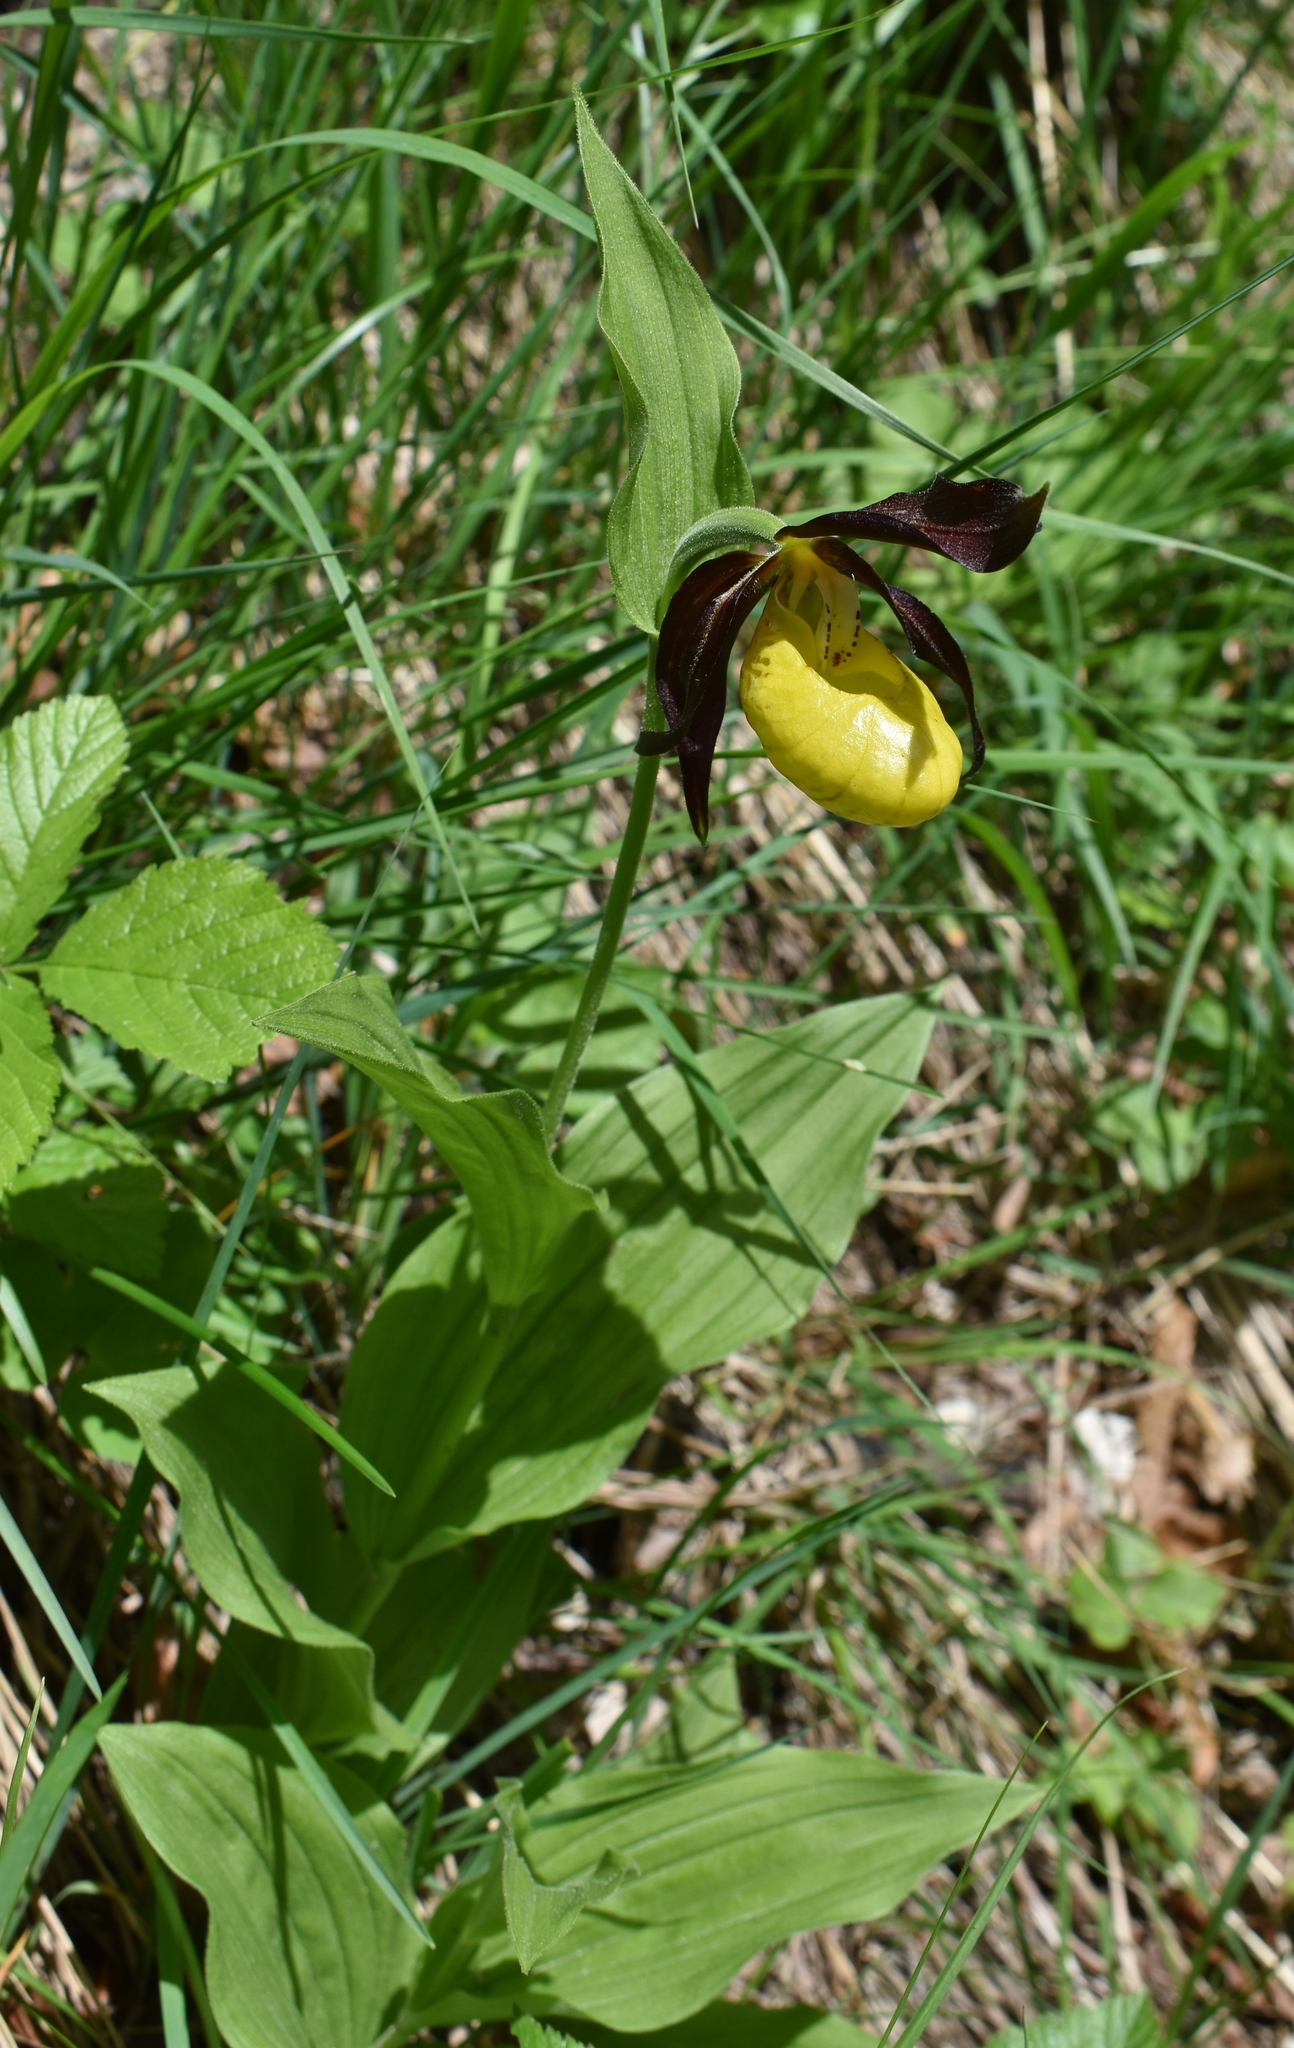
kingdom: Plantae
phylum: Tracheophyta
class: Liliopsida
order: Asparagales
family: Orchidaceae
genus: Cypripedium
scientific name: Cypripedium calceolus
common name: Lady's-slipper
